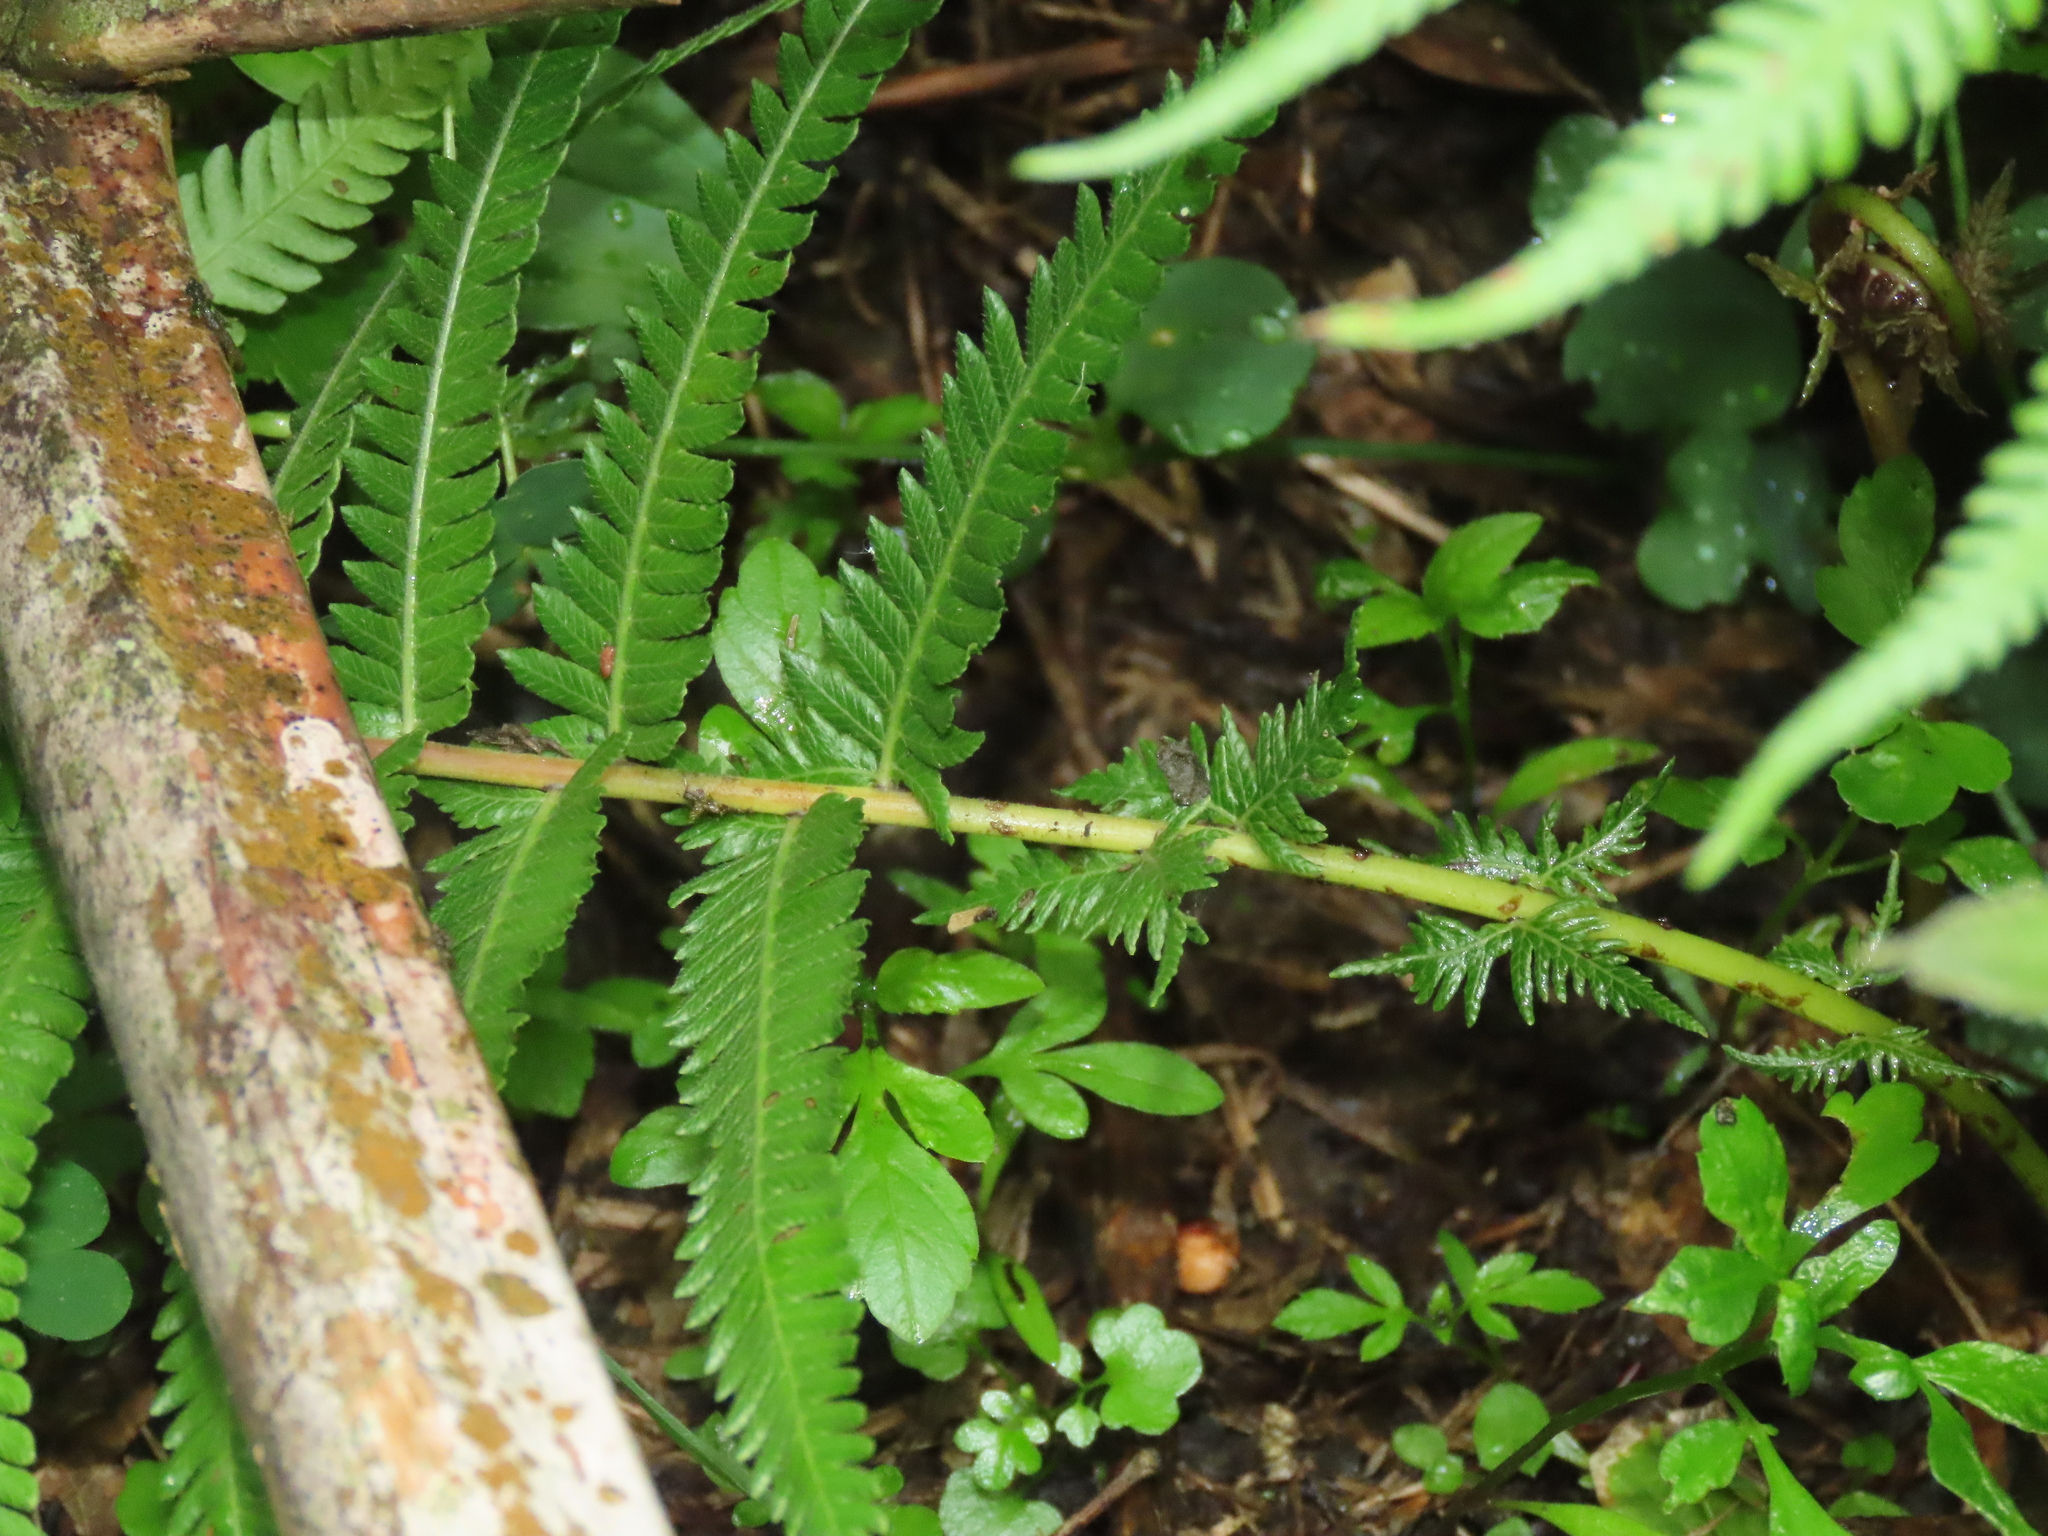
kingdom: Plantae
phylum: Tracheophyta
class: Polypodiopsida
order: Polypodiales
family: Thelypteridaceae
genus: Pseudocyclosorus
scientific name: Pseudocyclosorus esquirolii
